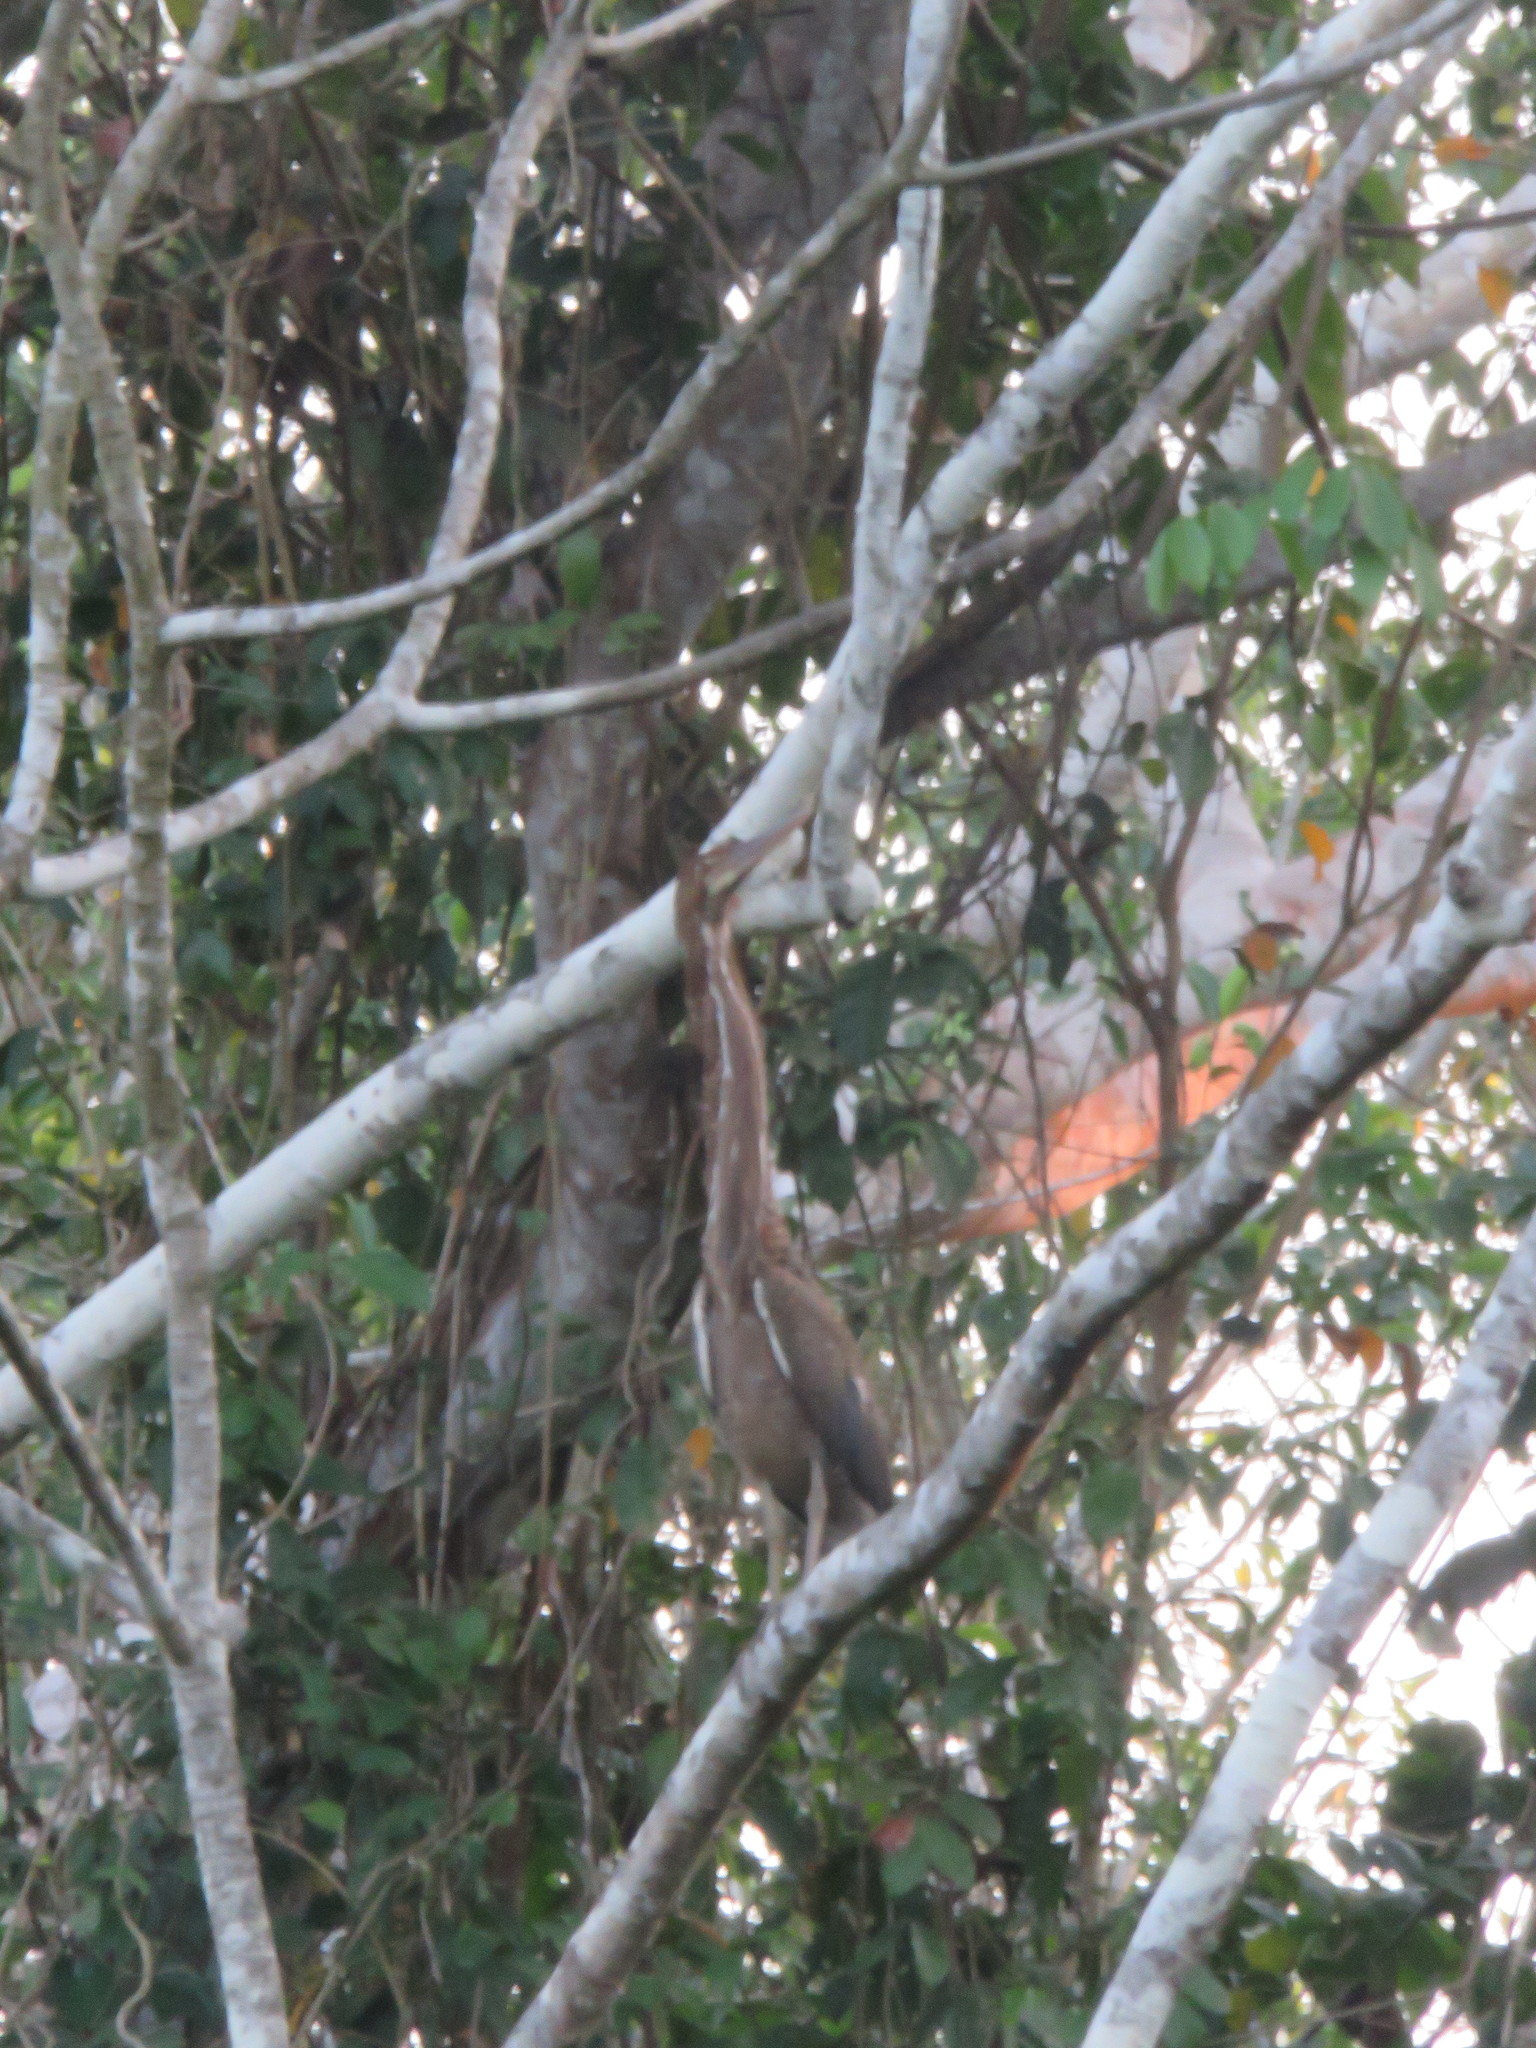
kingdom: Animalia
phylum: Chordata
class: Aves
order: Pelecaniformes
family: Ardeidae
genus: Tigrisoma
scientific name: Tigrisoma lineatum
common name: Rufescent tiger-heron
